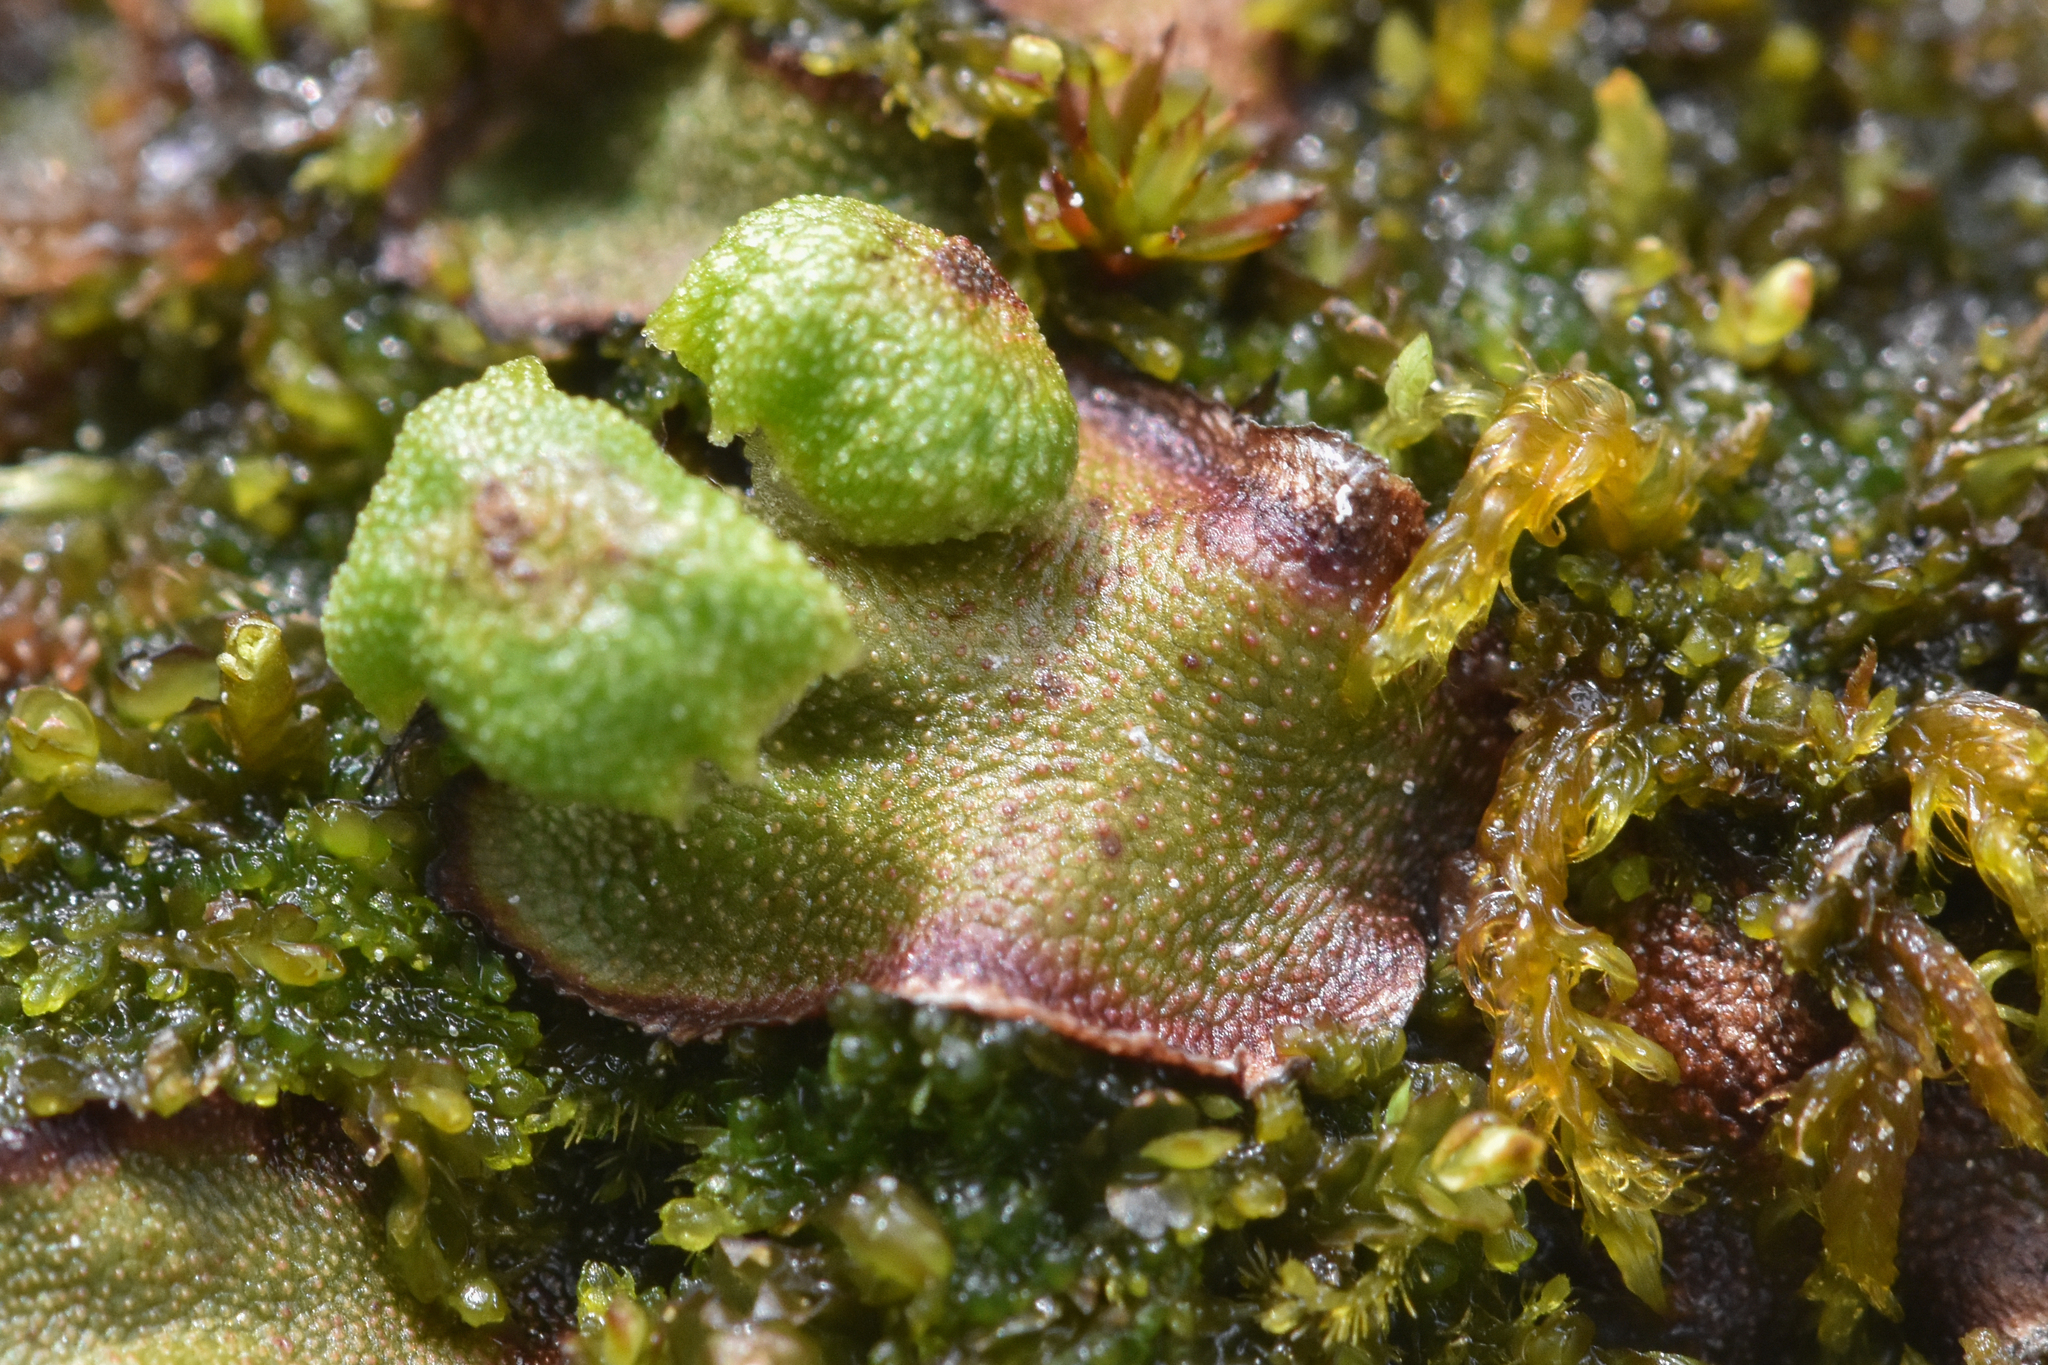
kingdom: Plantae
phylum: Marchantiophyta
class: Marchantiopsida
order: Marchantiales
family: Marchantiaceae
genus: Marchantia
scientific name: Marchantia quadrata
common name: Narrow mushroom-headed liverwort
